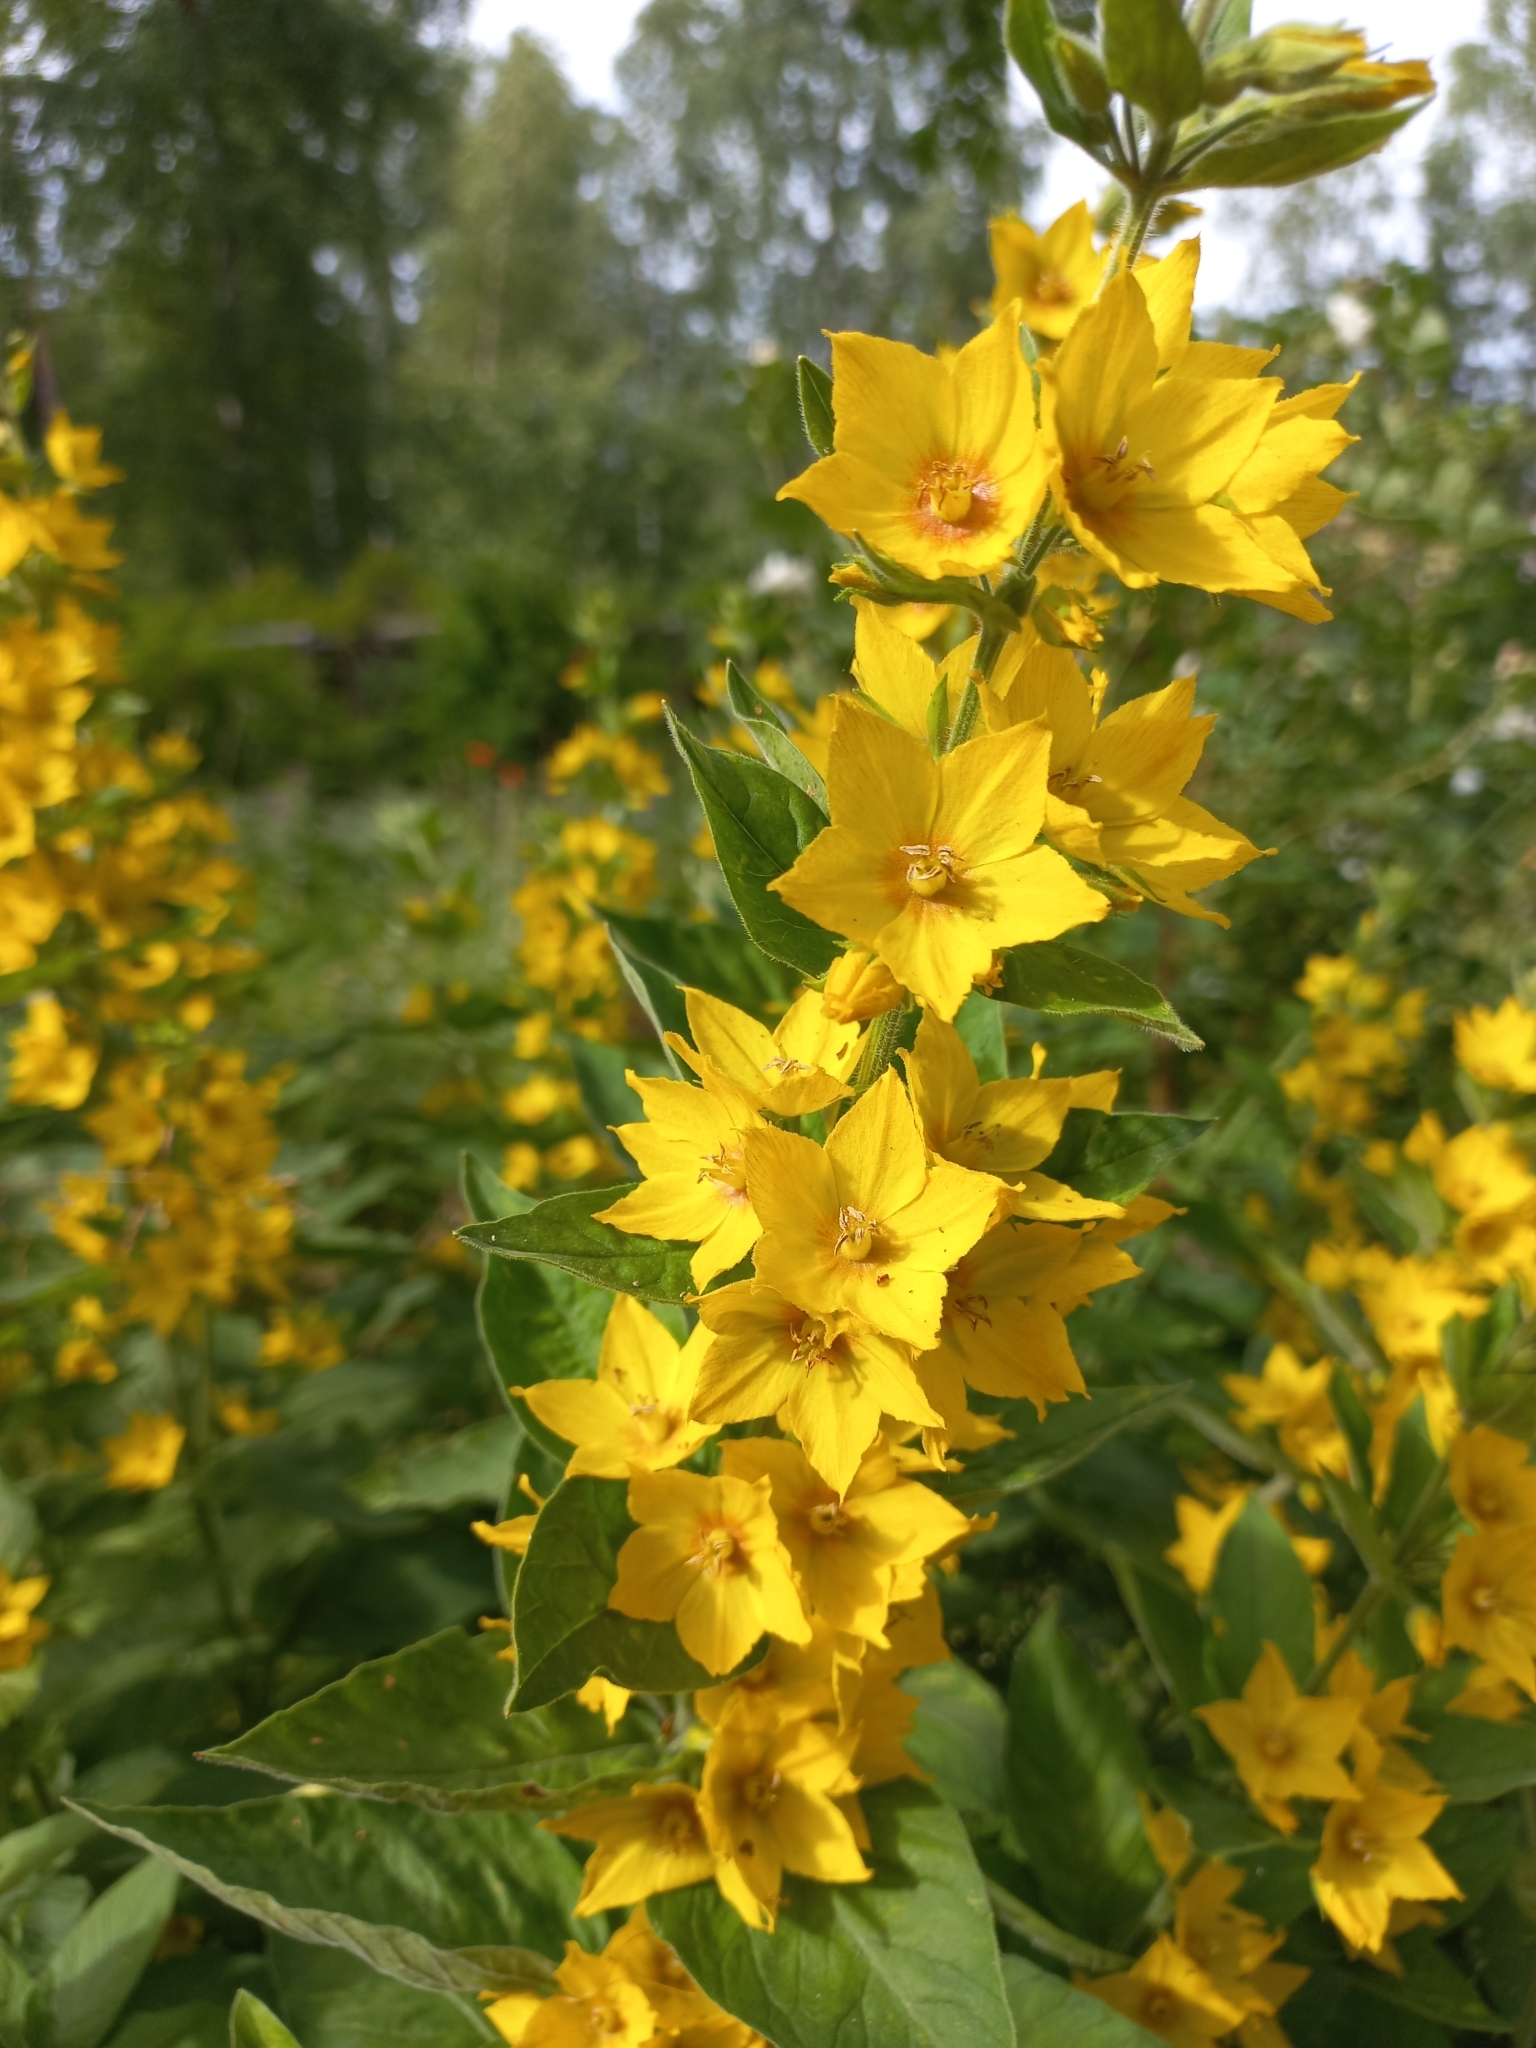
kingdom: Plantae
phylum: Tracheophyta
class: Magnoliopsida
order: Ericales
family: Primulaceae
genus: Lysimachia
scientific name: Lysimachia punctata
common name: Dotted loosestrife
